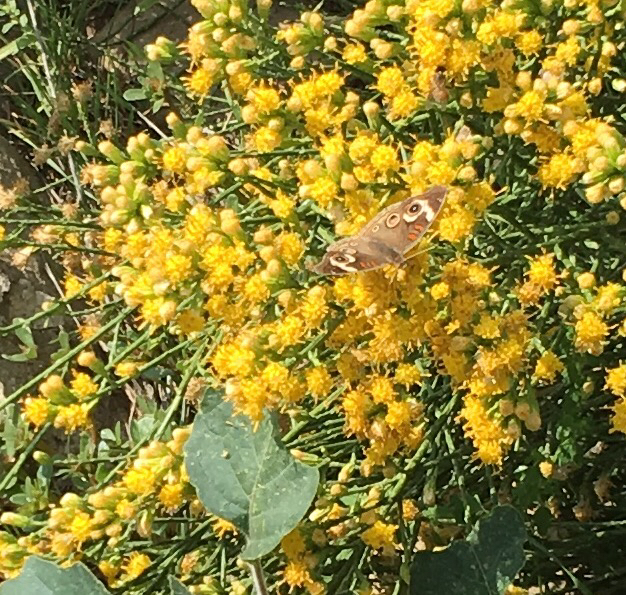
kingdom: Animalia
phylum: Arthropoda
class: Insecta
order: Lepidoptera
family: Nymphalidae
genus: Junonia
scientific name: Junonia grisea
